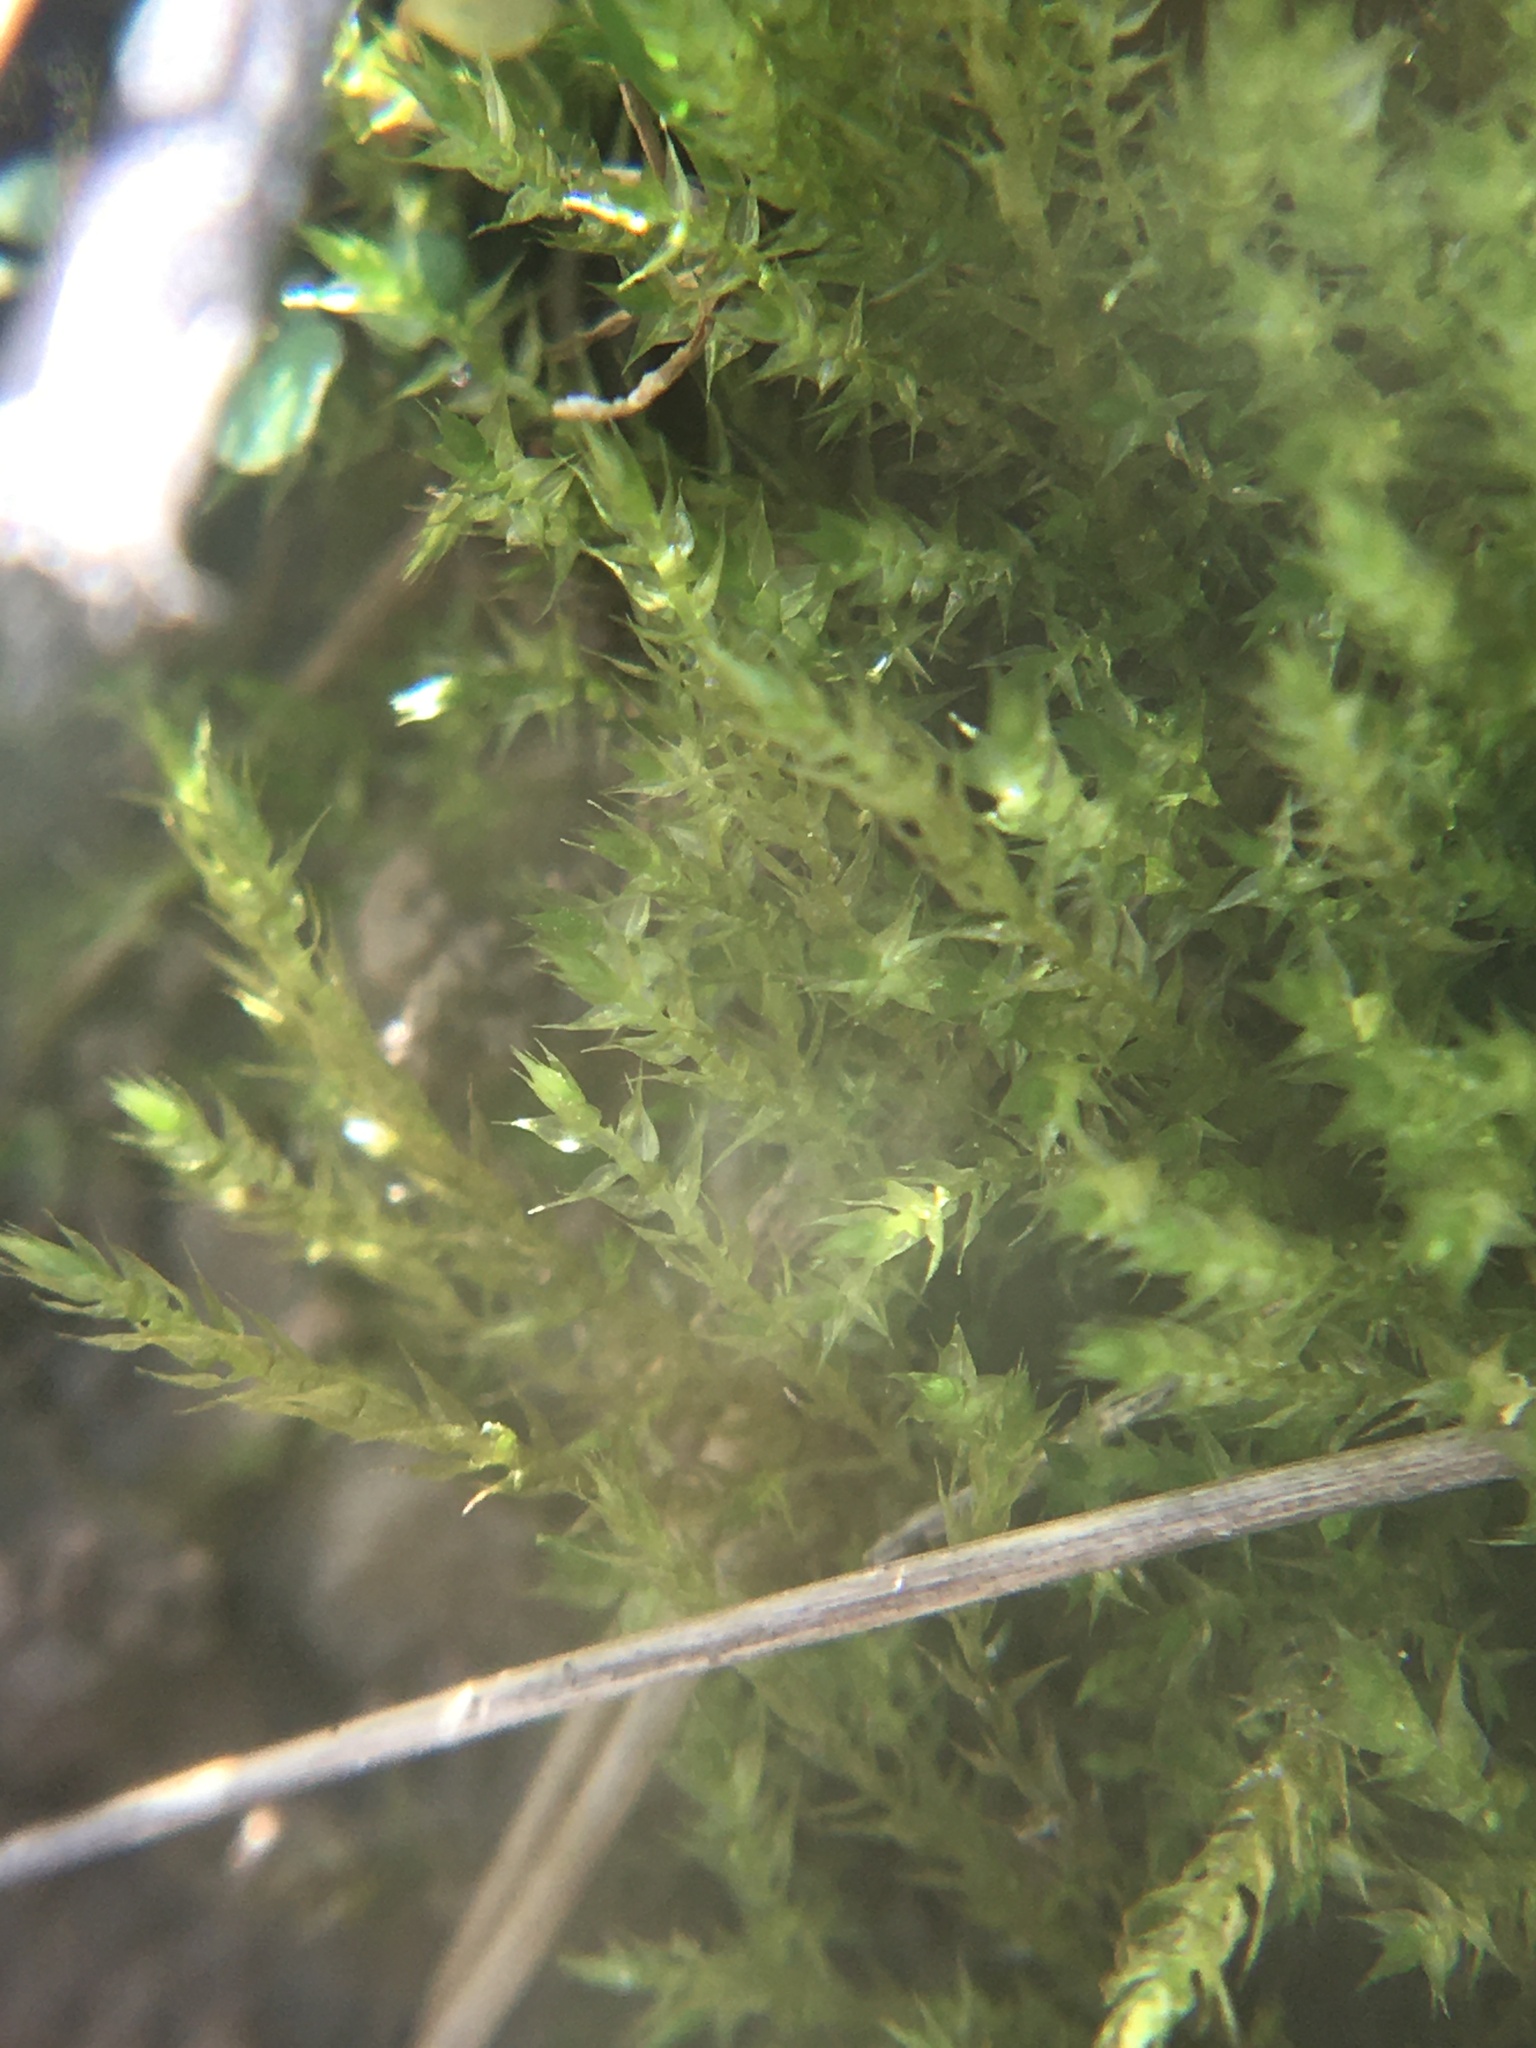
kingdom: Plantae
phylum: Bryophyta
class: Bryopsida
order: Hypnales
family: Amblystegiaceae
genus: Hygroamblystegium
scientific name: Hygroamblystegium varium
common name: Willow feather-moss
